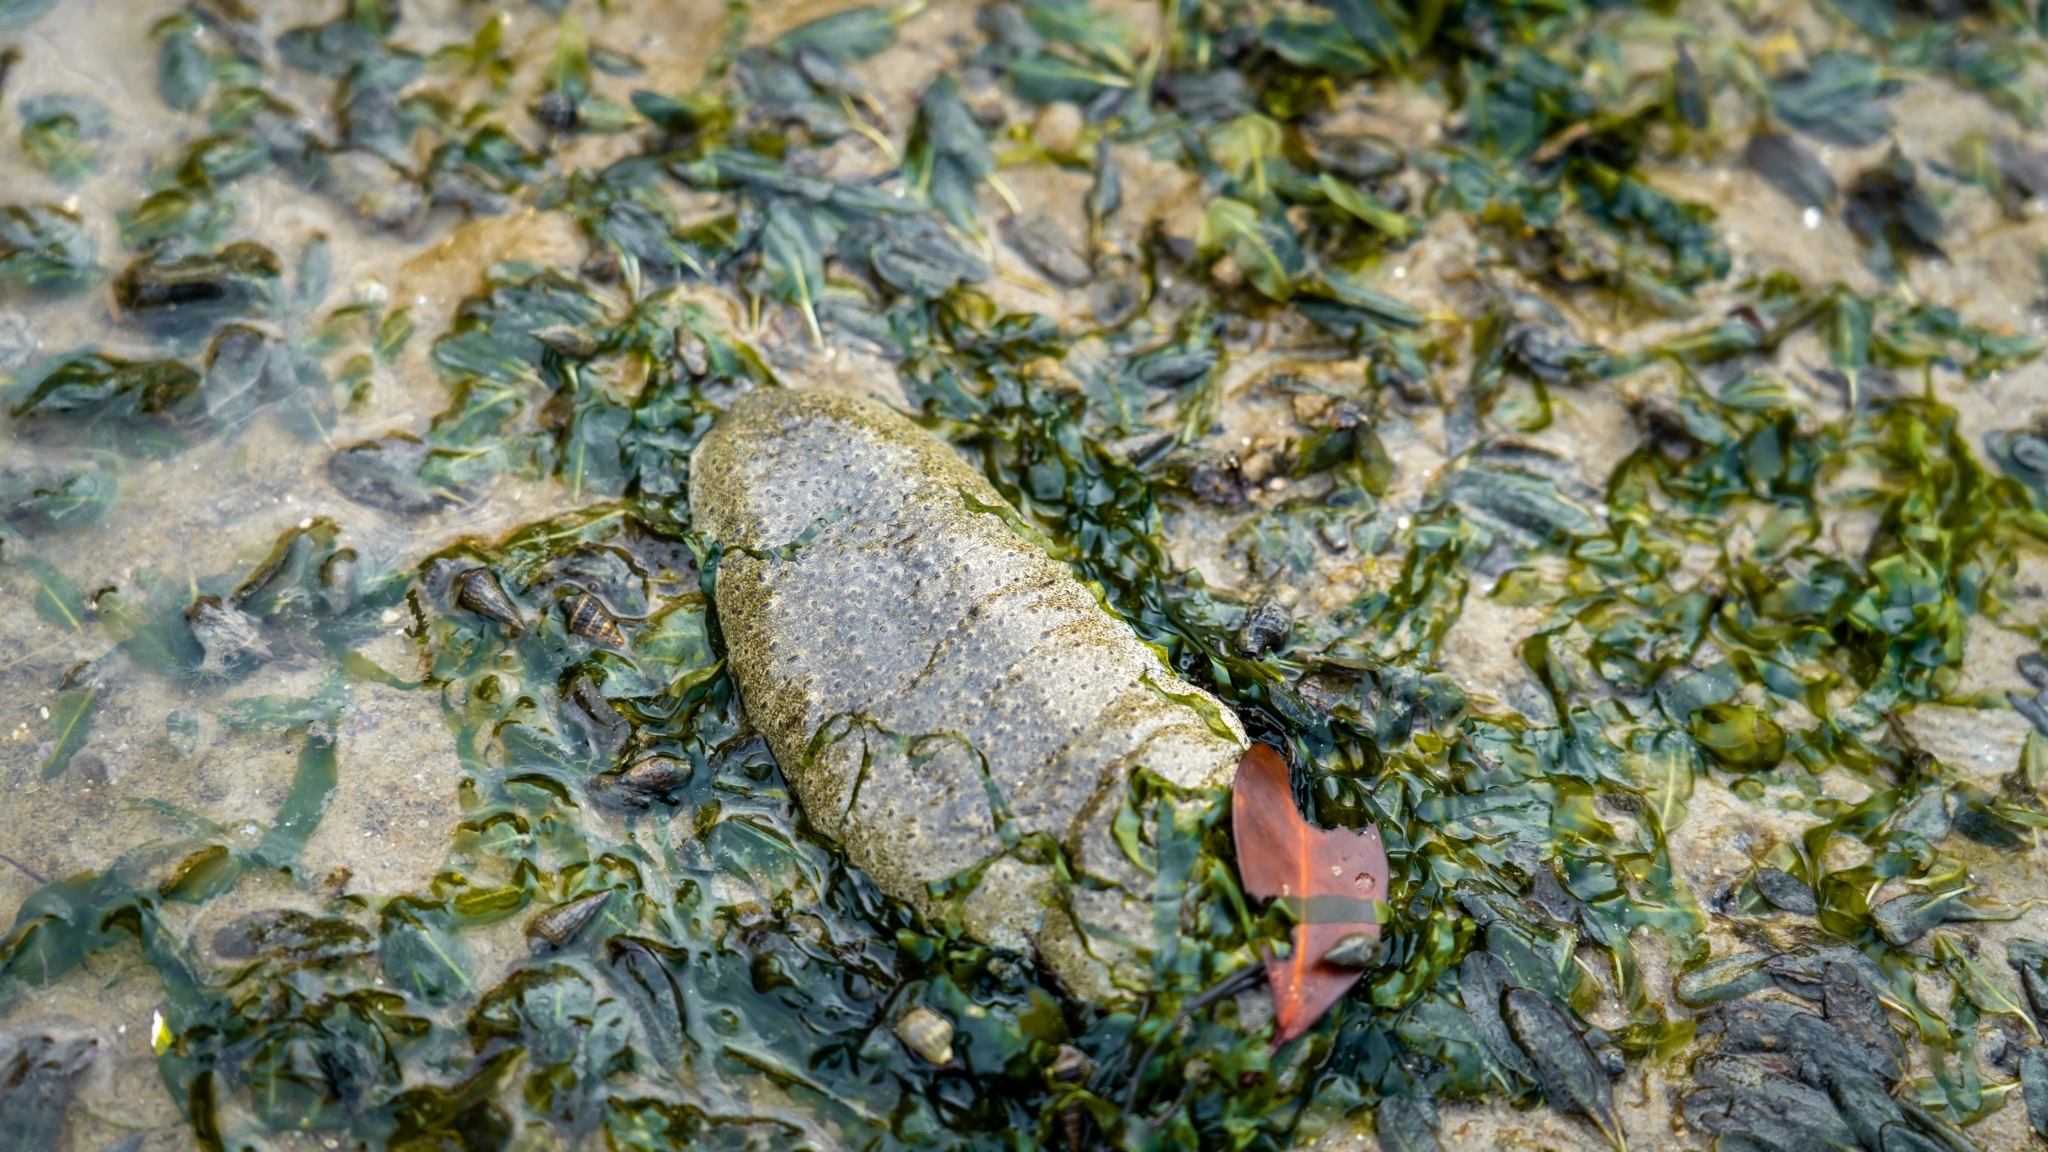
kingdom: Animalia
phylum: Echinodermata
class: Holothuroidea
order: Holothuriida
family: Holothuriidae
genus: Holothuria
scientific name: Holothuria scabra
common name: Golden sandfish
